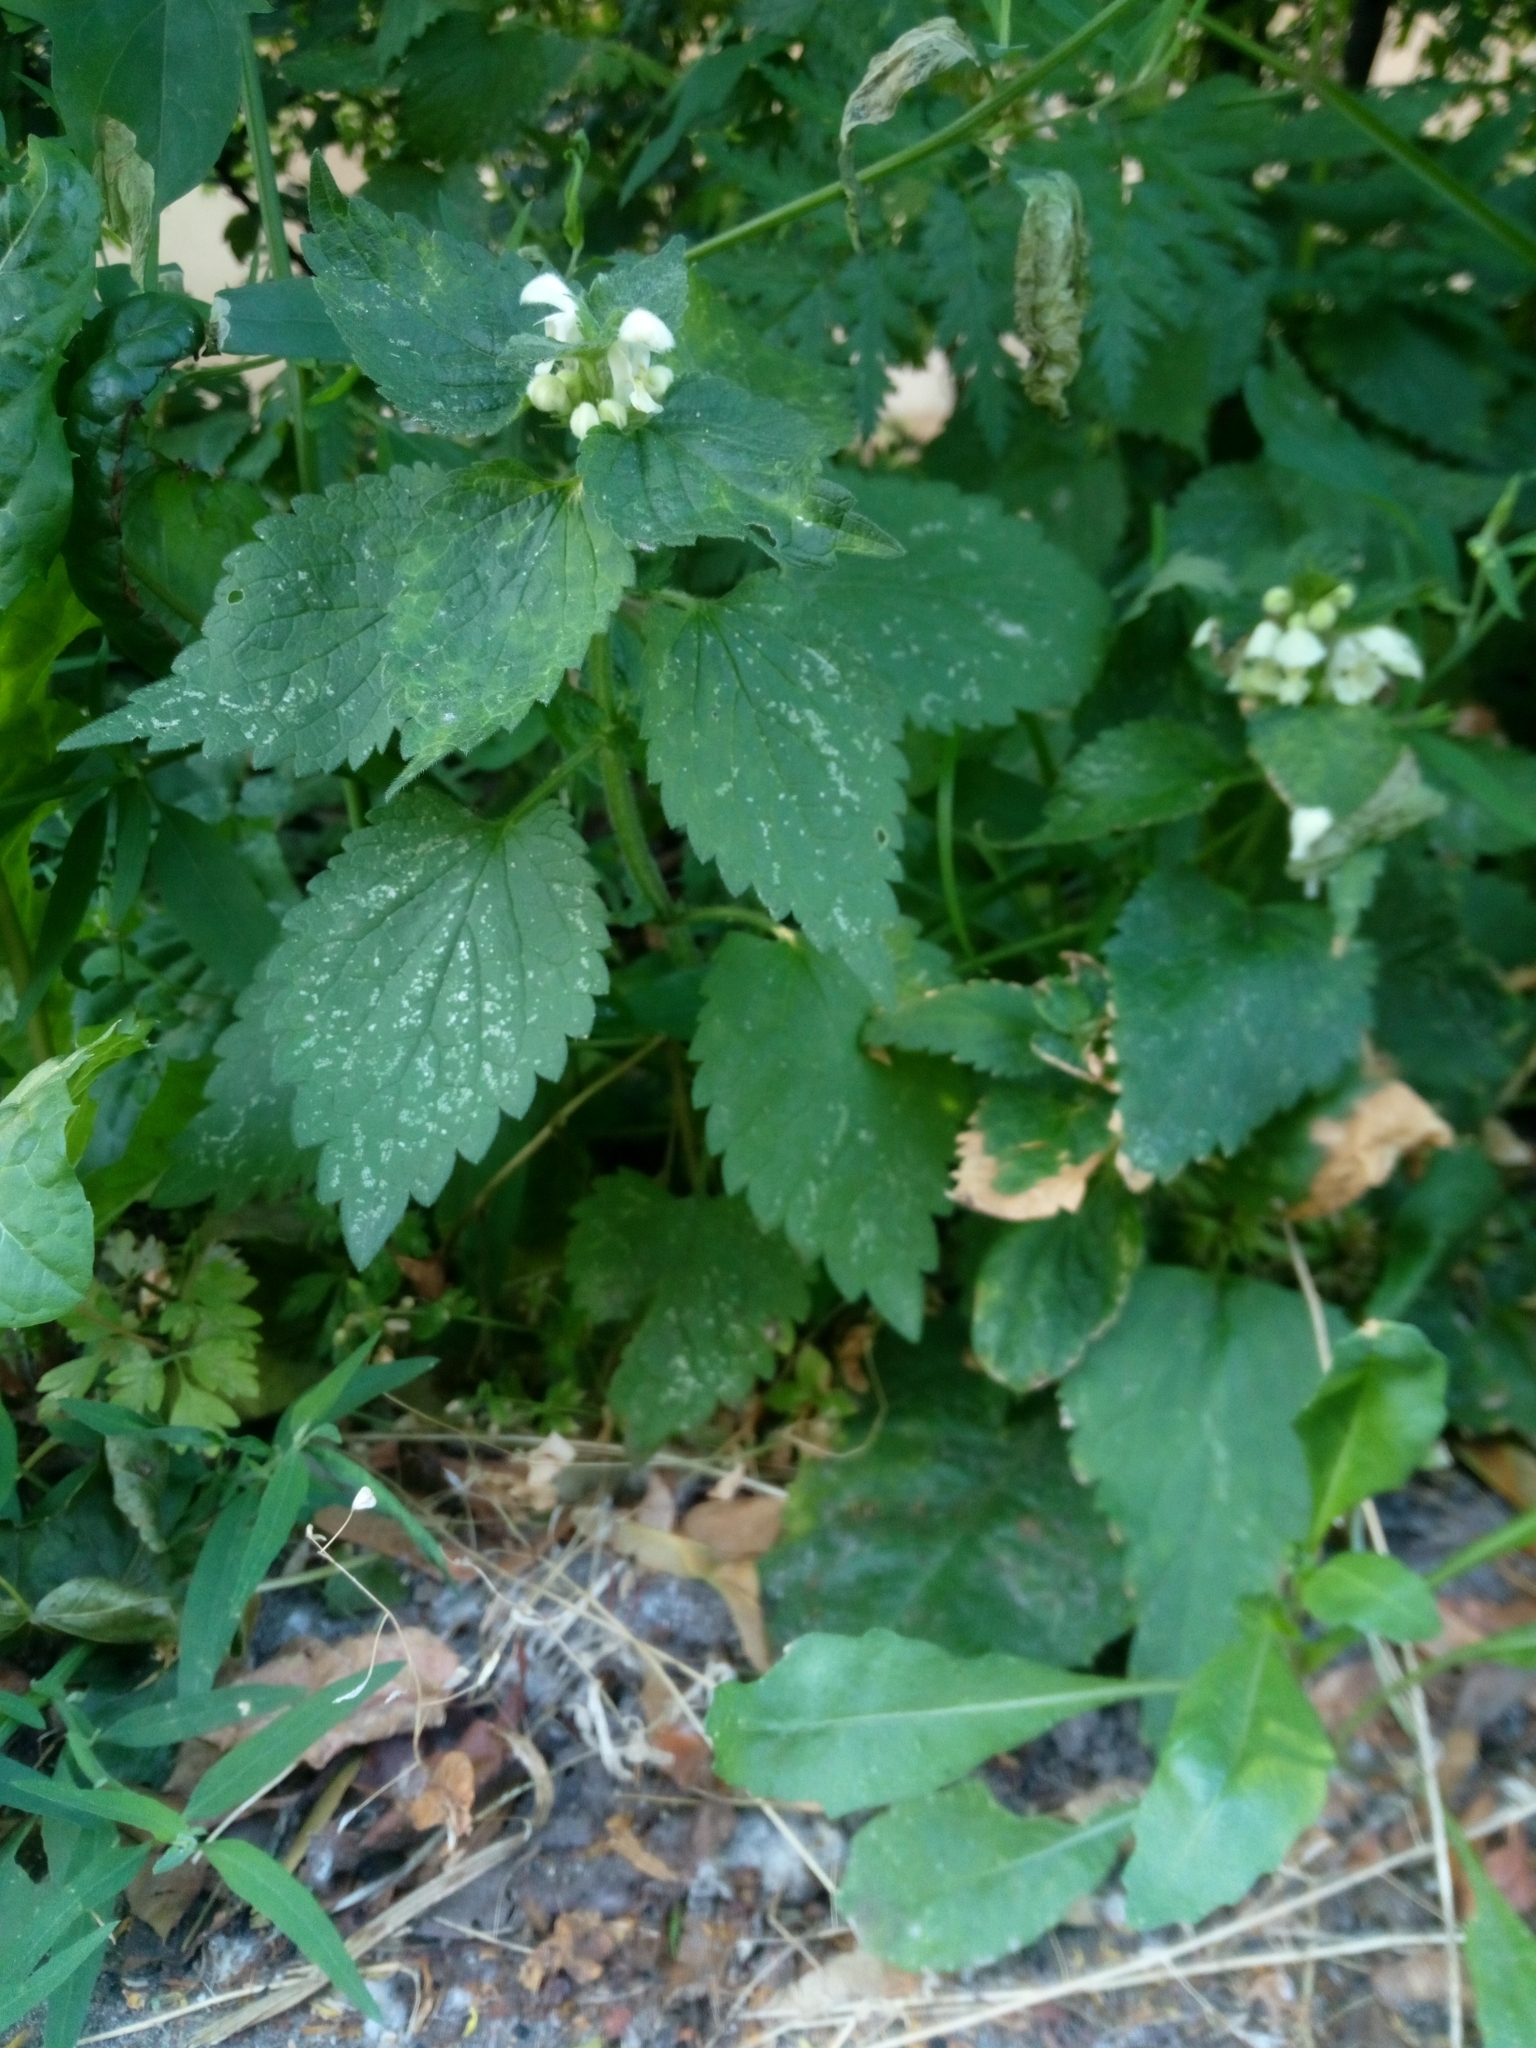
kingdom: Plantae
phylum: Tracheophyta
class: Magnoliopsida
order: Lamiales
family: Lamiaceae
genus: Lamium
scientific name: Lamium album
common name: White dead-nettle
